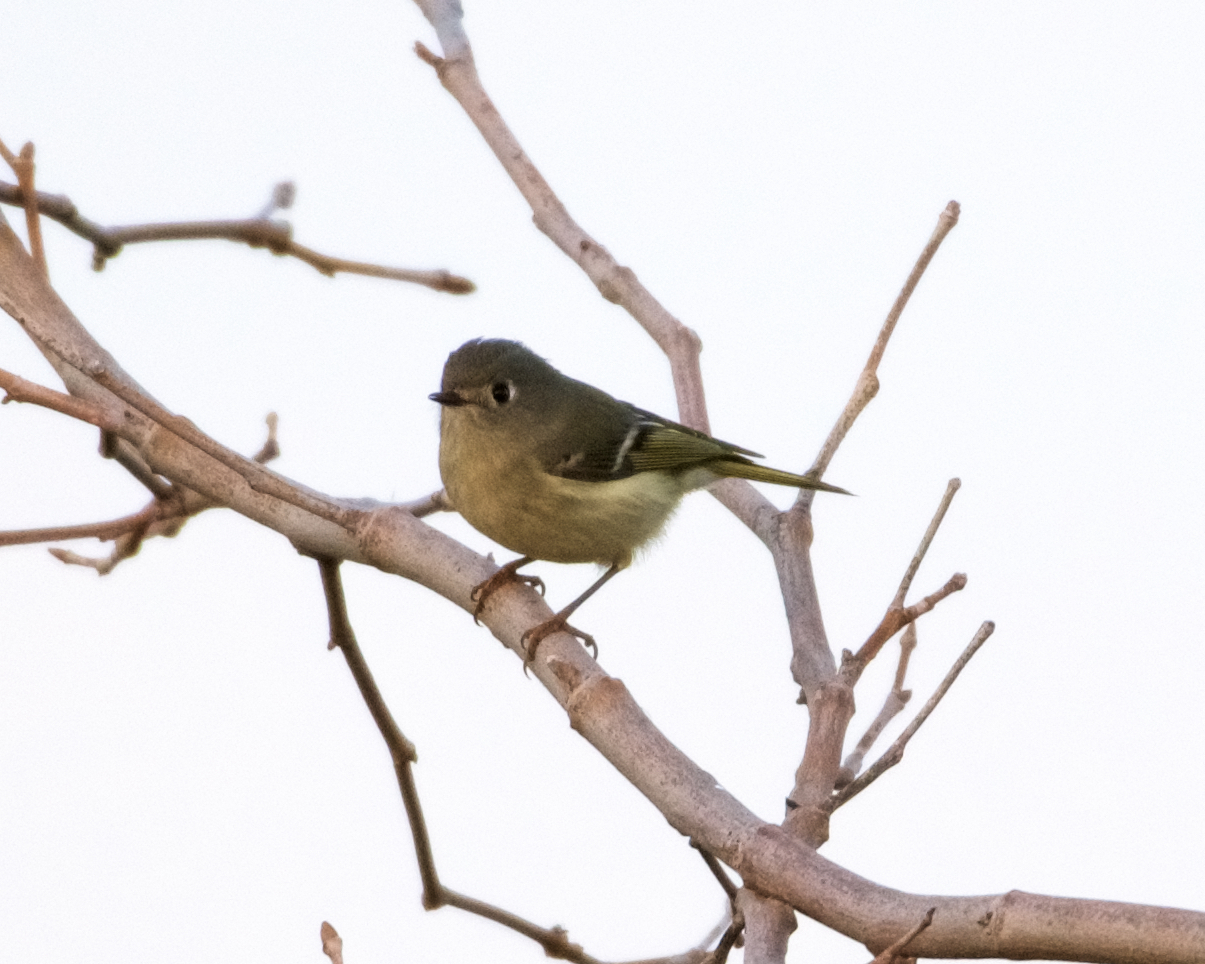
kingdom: Animalia
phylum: Chordata
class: Aves
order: Passeriformes
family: Regulidae
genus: Regulus
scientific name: Regulus calendula
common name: Ruby-crowned kinglet
